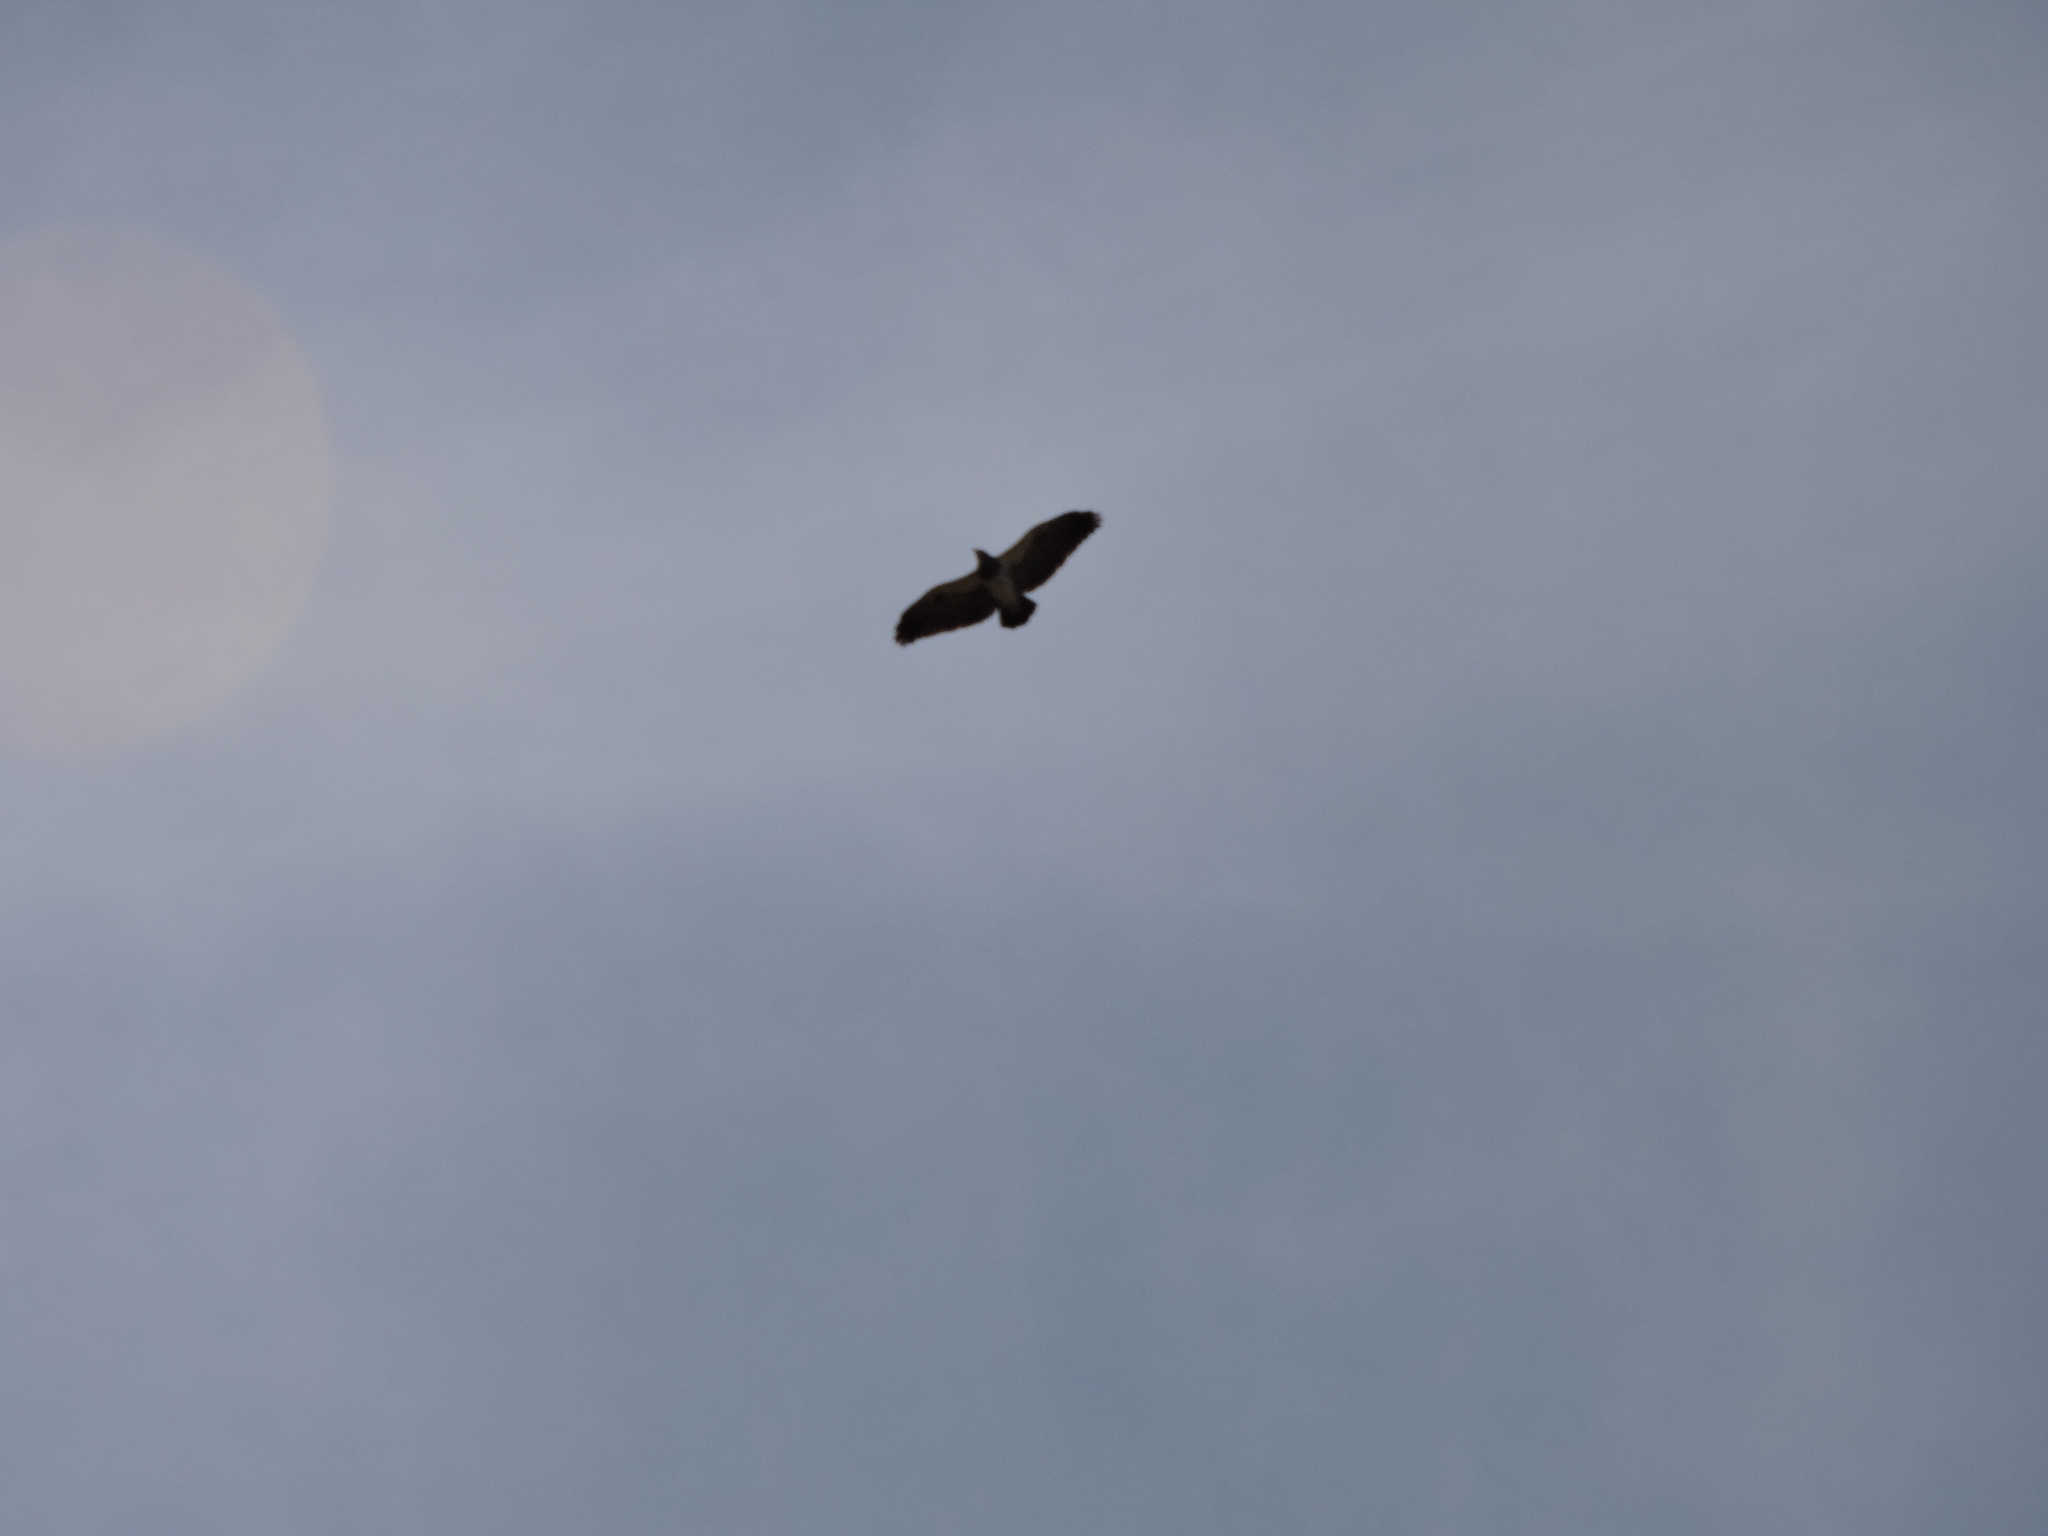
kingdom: Animalia
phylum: Chordata
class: Aves
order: Accipitriformes
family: Accipitridae
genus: Geranoaetus
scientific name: Geranoaetus melanoleucus
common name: Black-chested buzzard-eagle
